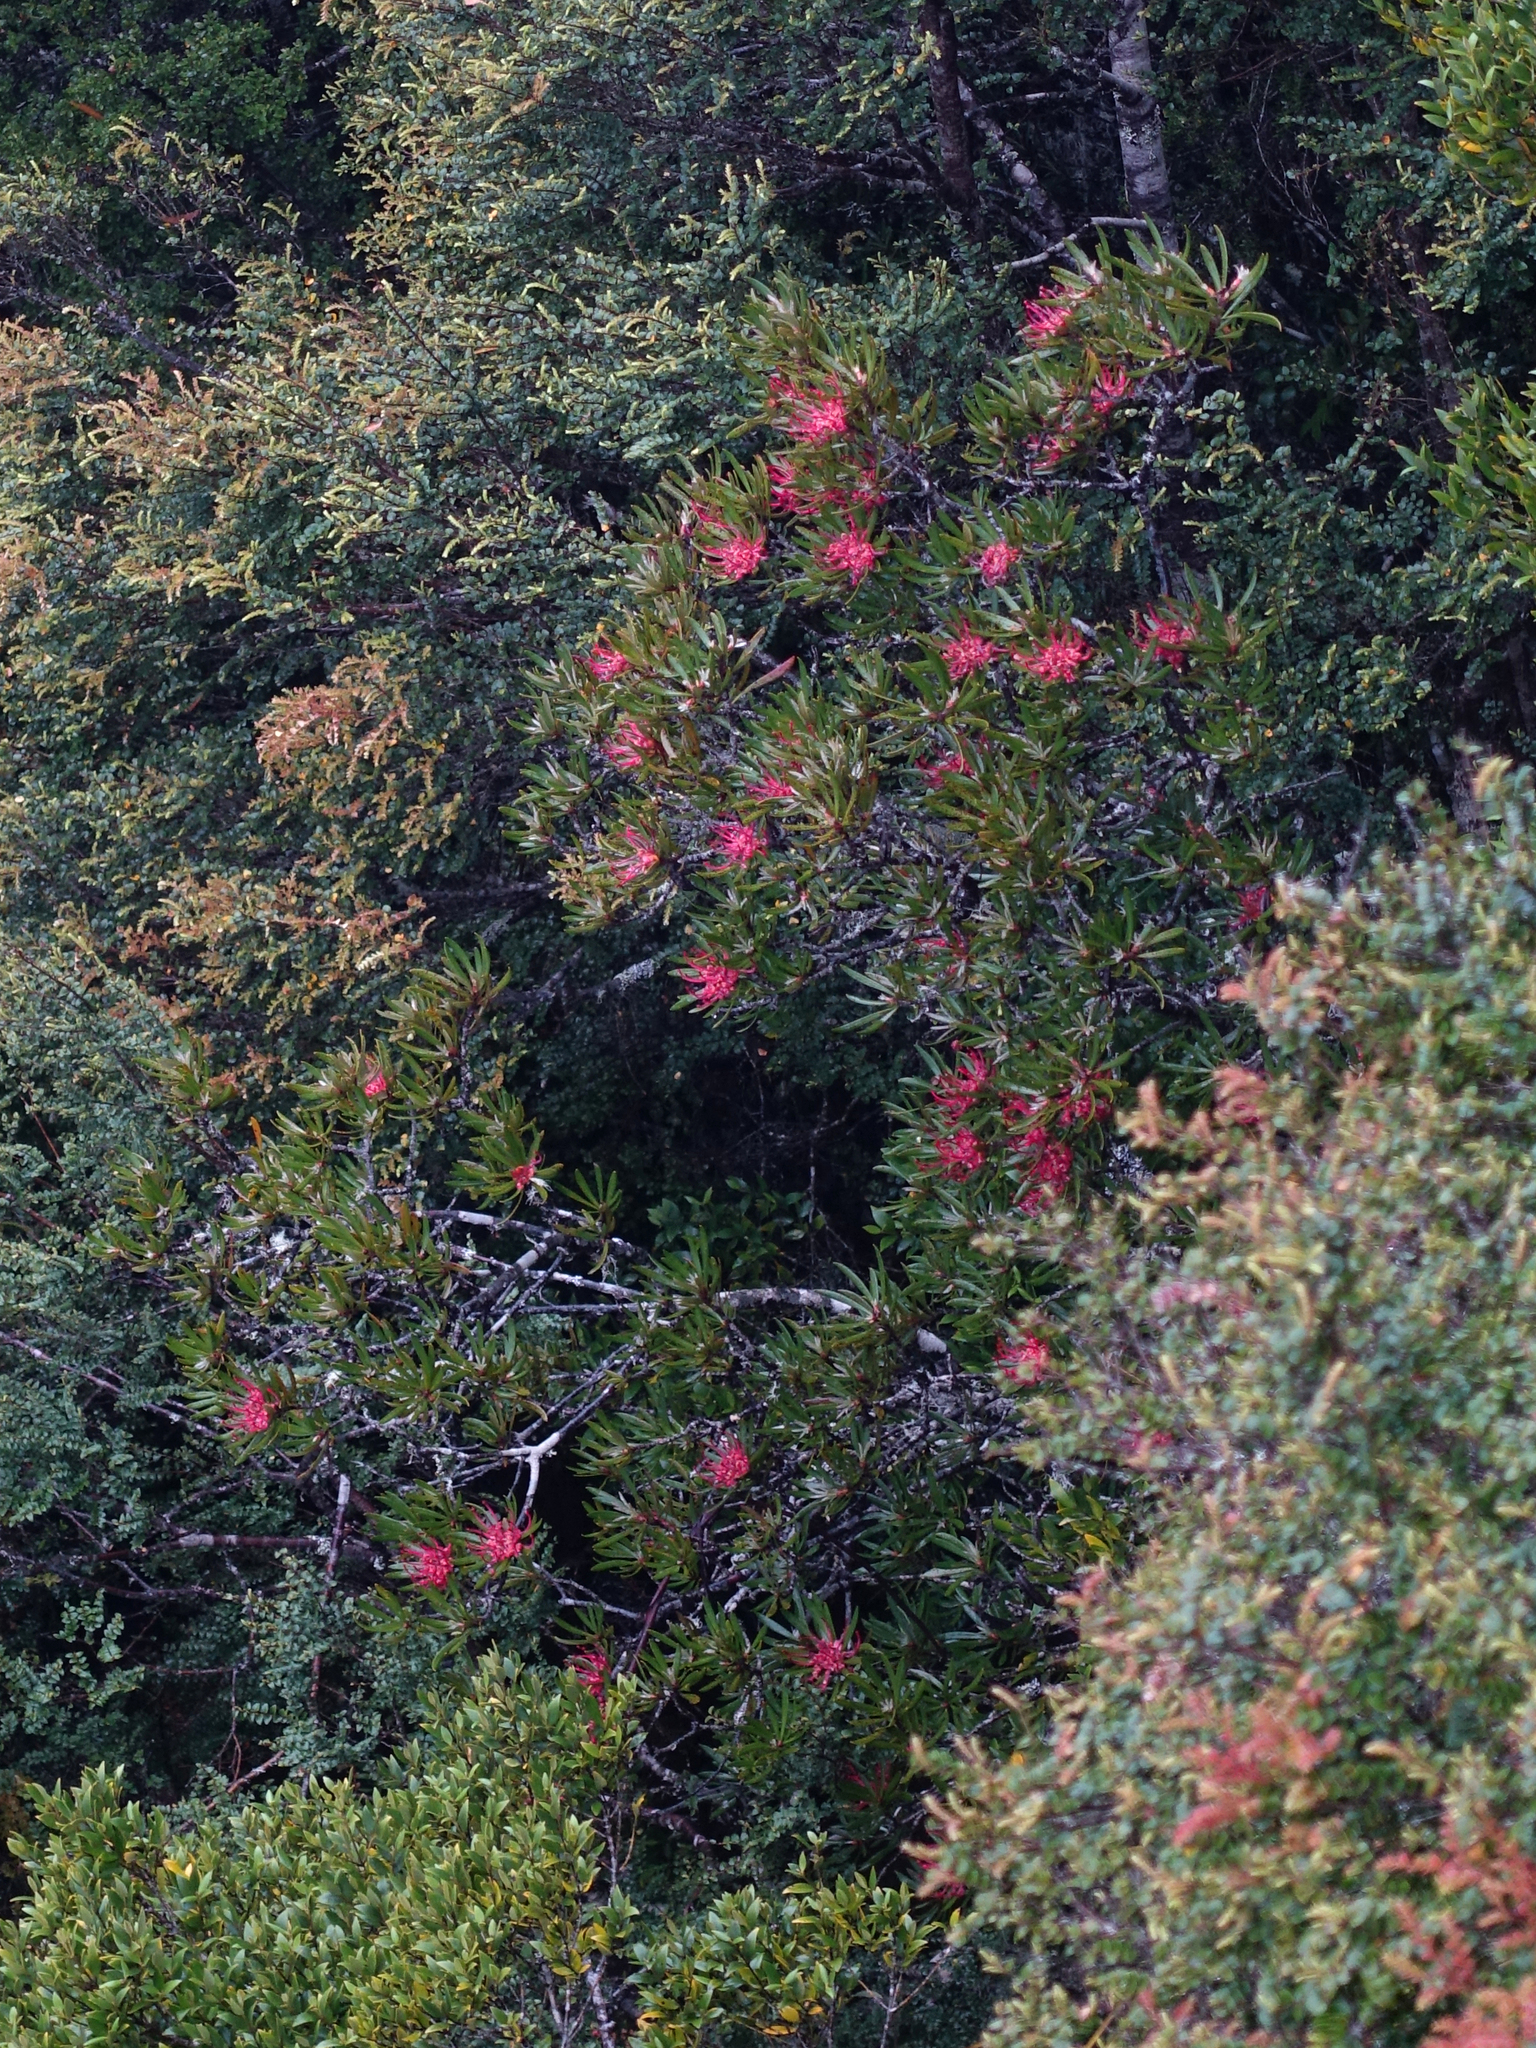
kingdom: Plantae
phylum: Tracheophyta
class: Magnoliopsida
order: Proteales
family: Proteaceae
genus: Telopea
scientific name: Telopea truncata
